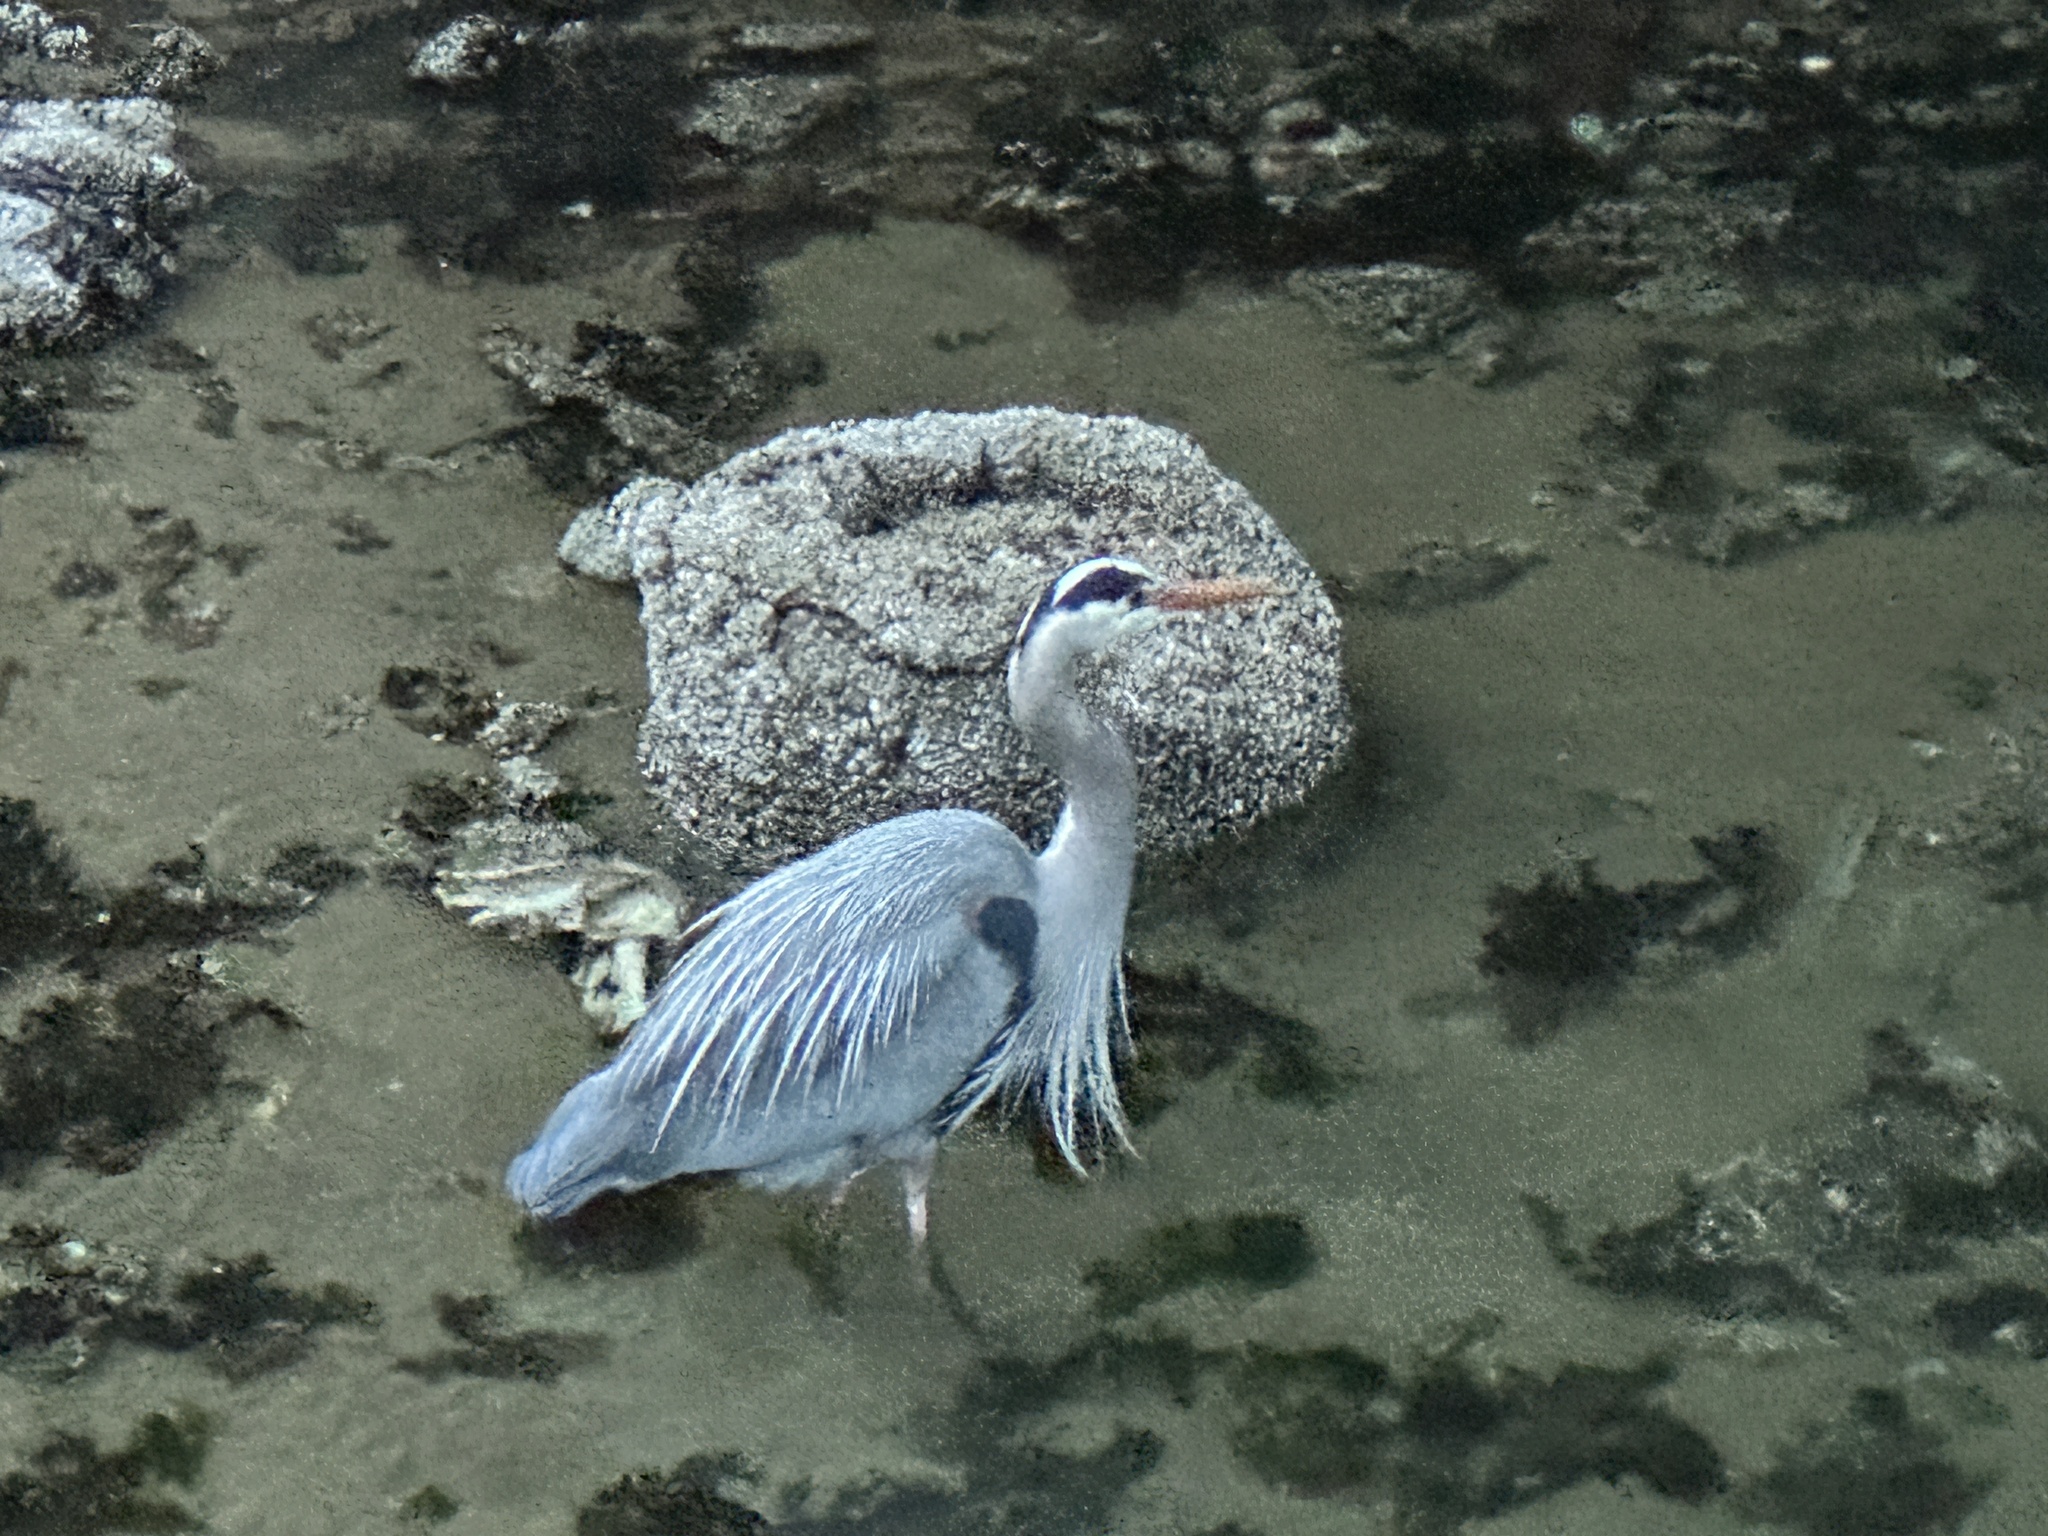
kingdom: Animalia
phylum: Chordata
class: Aves
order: Pelecaniformes
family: Ardeidae
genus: Ardea
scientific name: Ardea herodias
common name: Great blue heron
